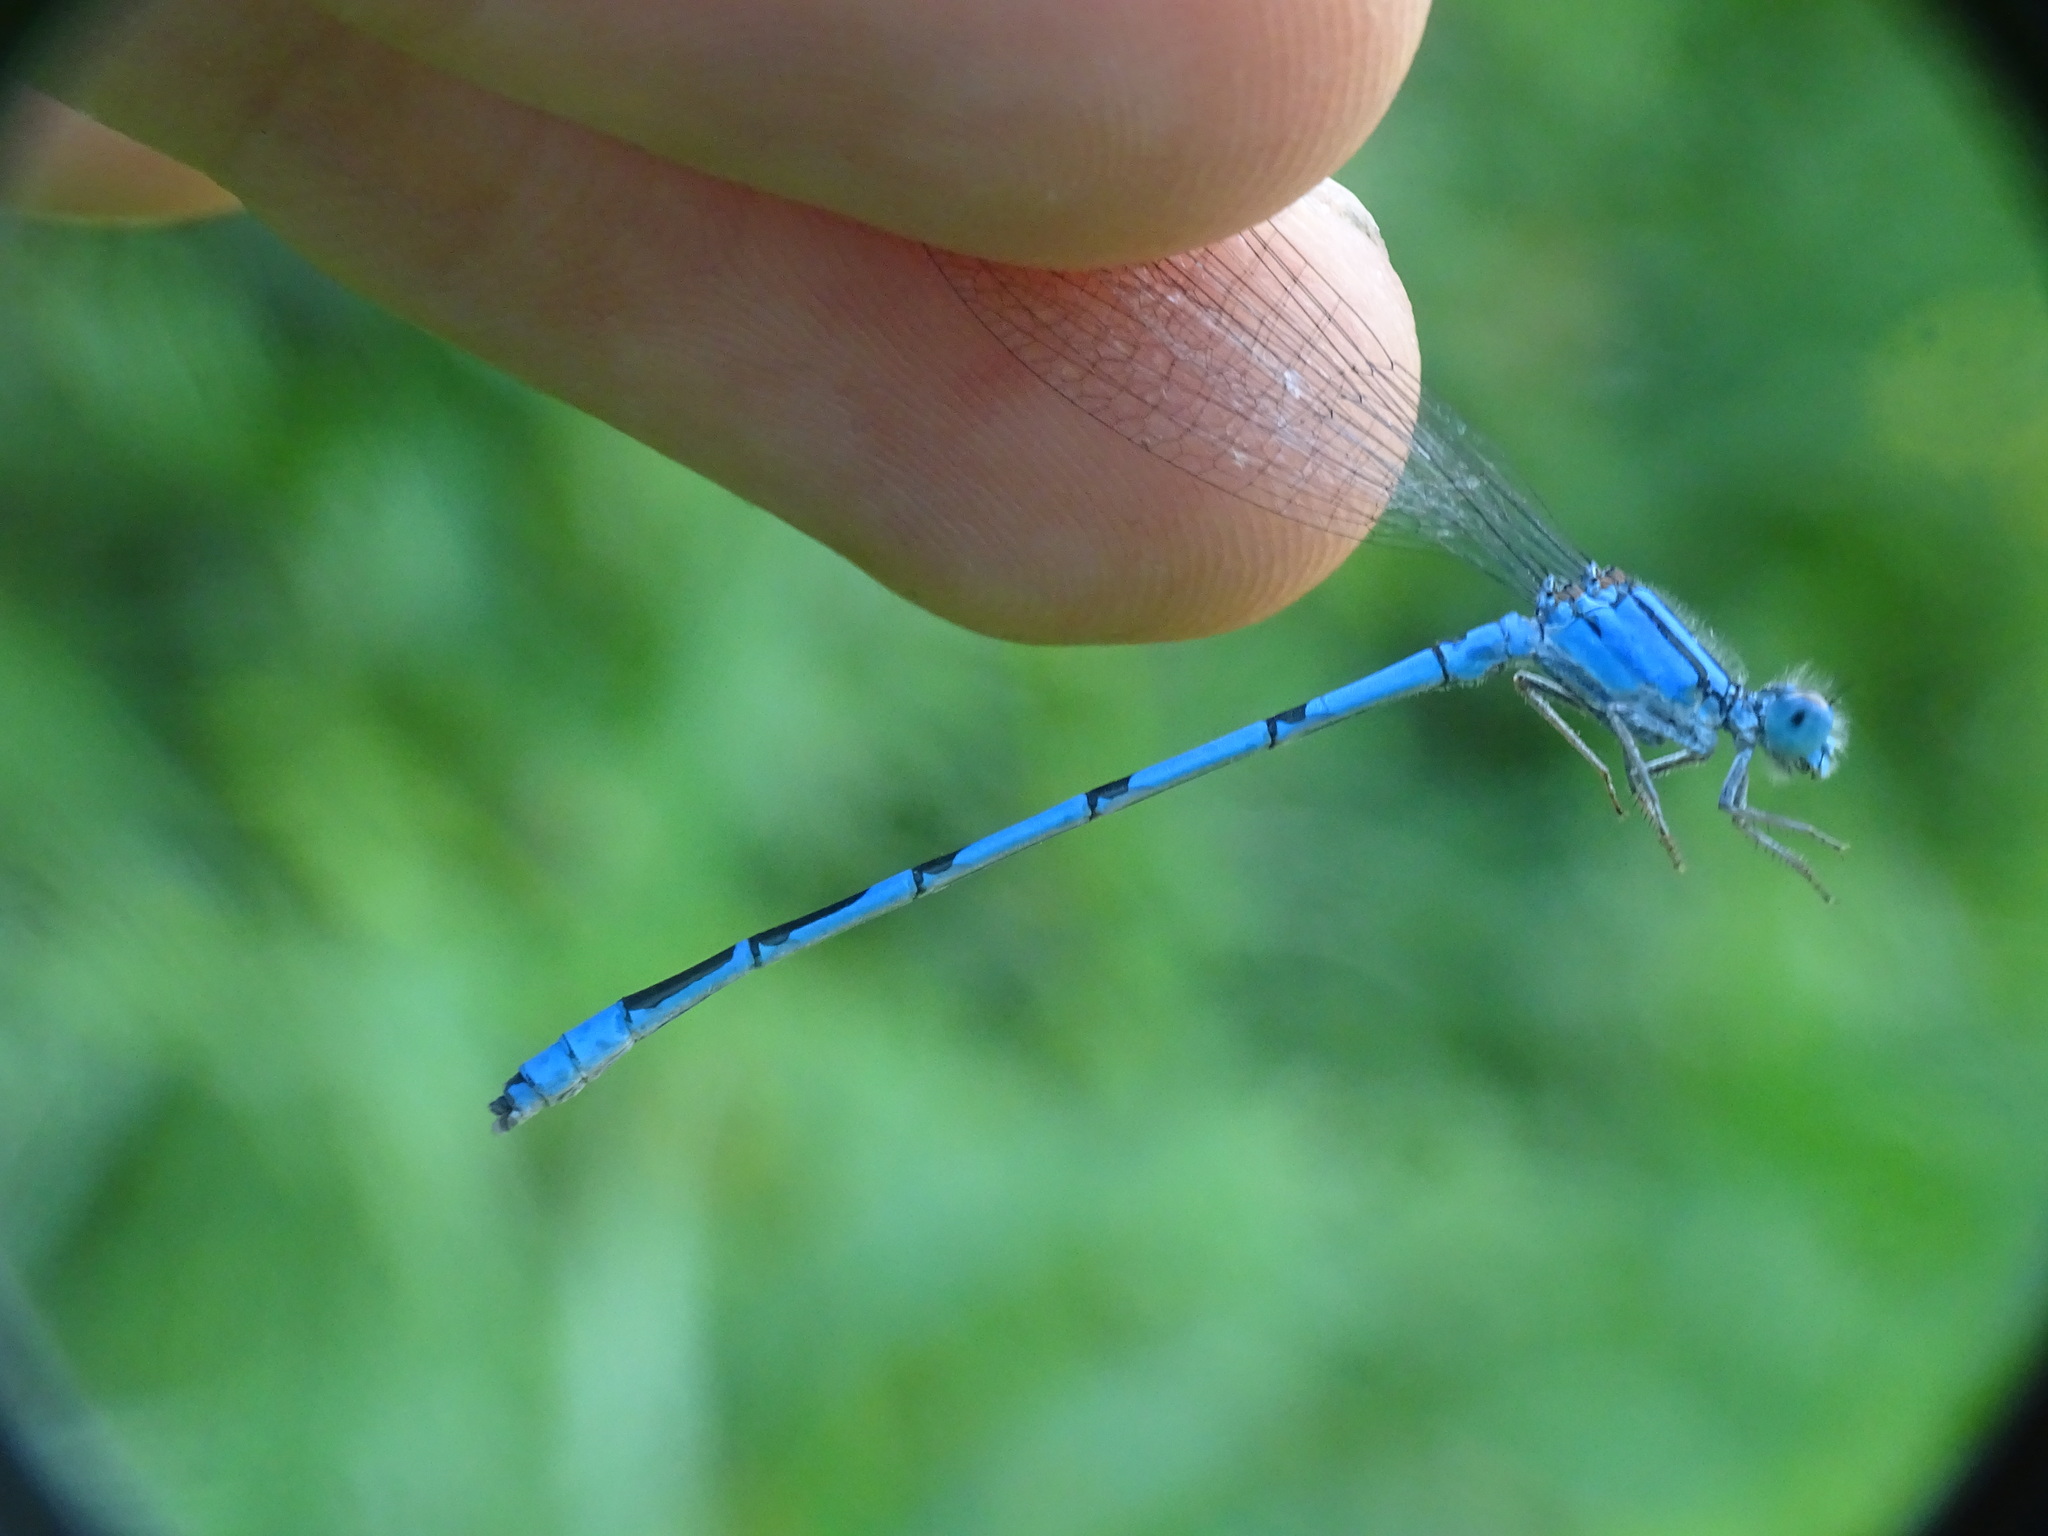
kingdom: Animalia
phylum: Arthropoda
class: Insecta
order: Odonata
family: Coenagrionidae
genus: Enallagma
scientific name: Enallagma civile
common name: Damselfly
